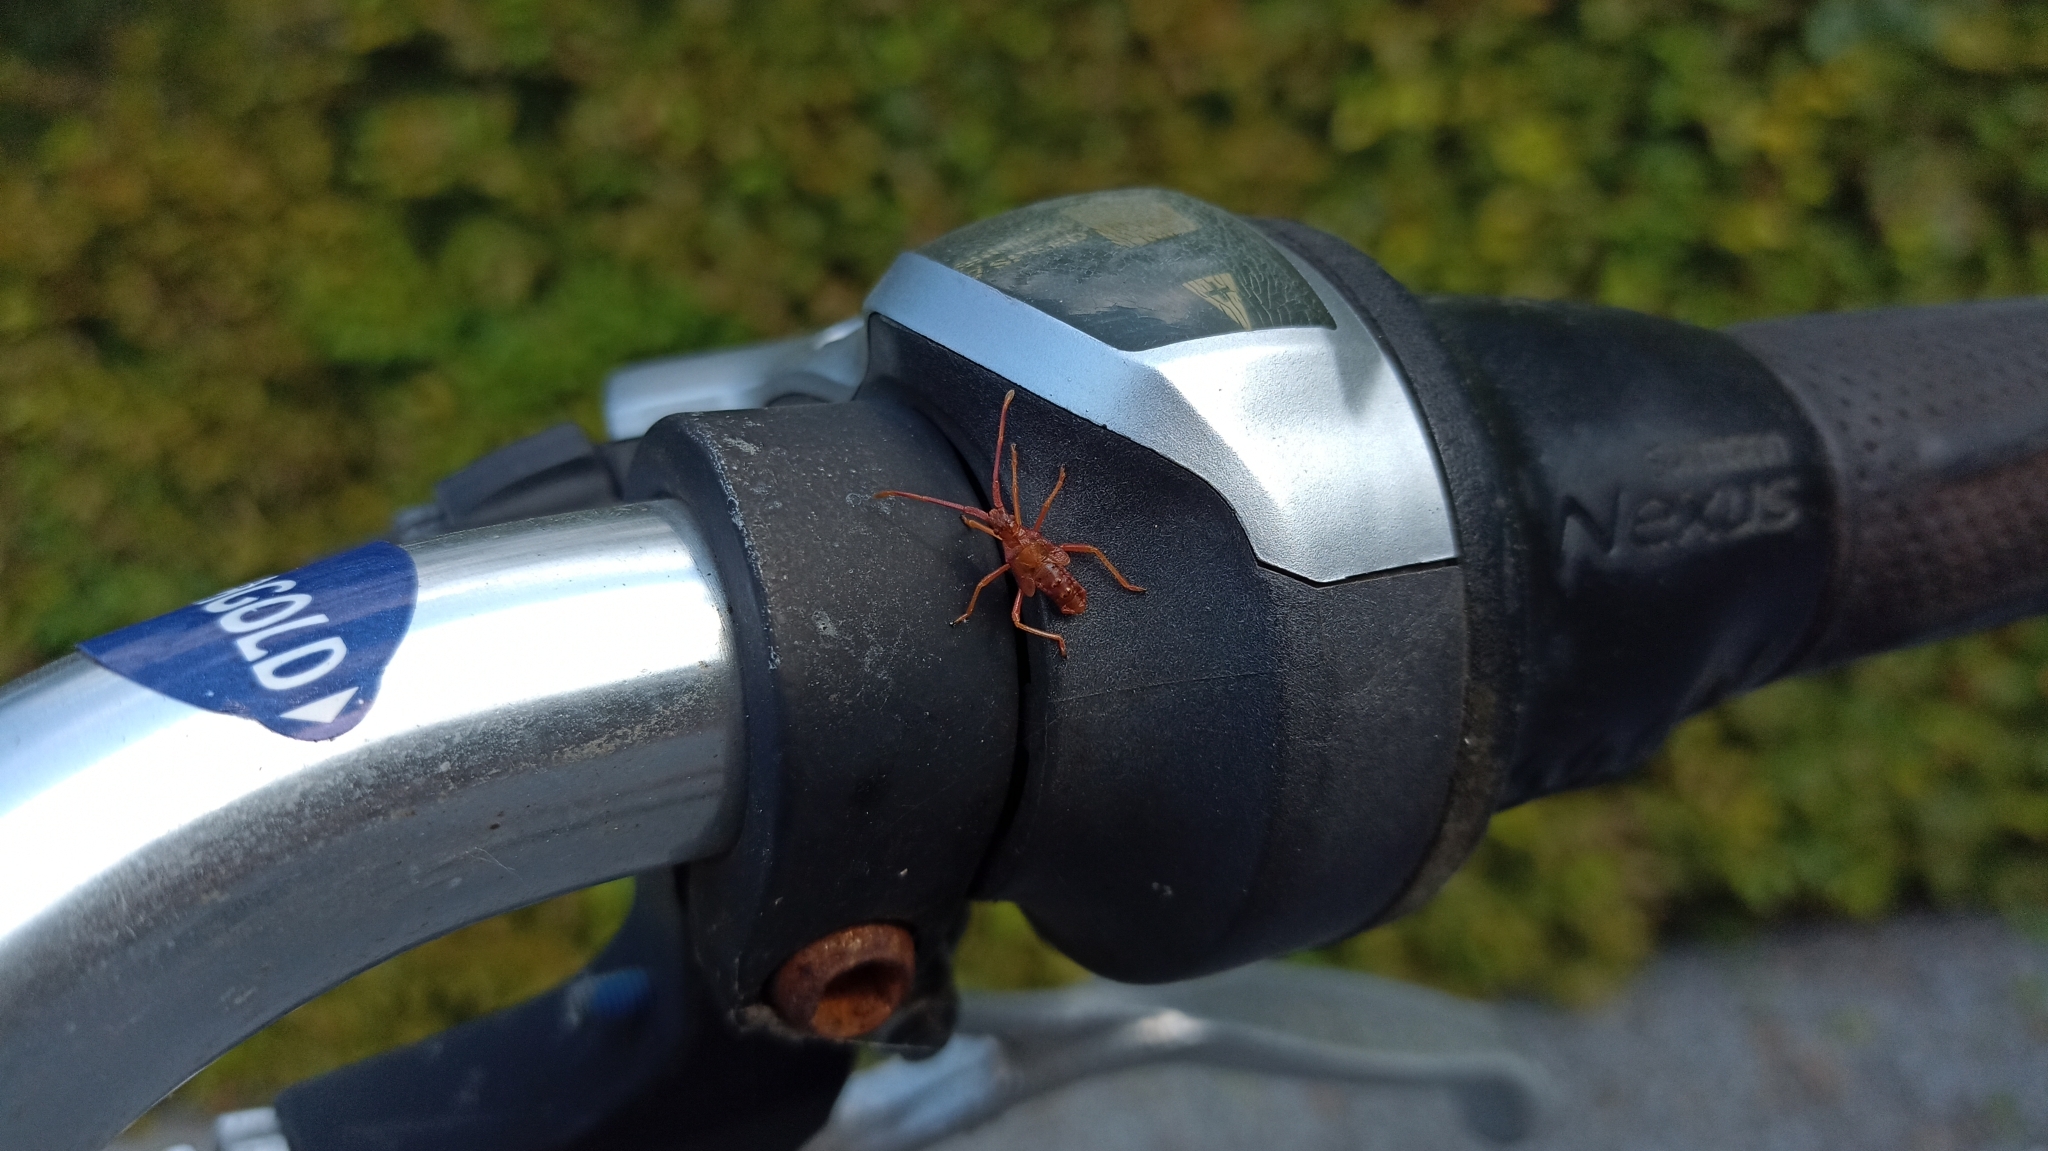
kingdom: Animalia
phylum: Arthropoda
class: Insecta
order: Hemiptera
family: Coreidae
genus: Leptoglossus
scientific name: Leptoglossus occidentalis
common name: Western conifer-seed bug
